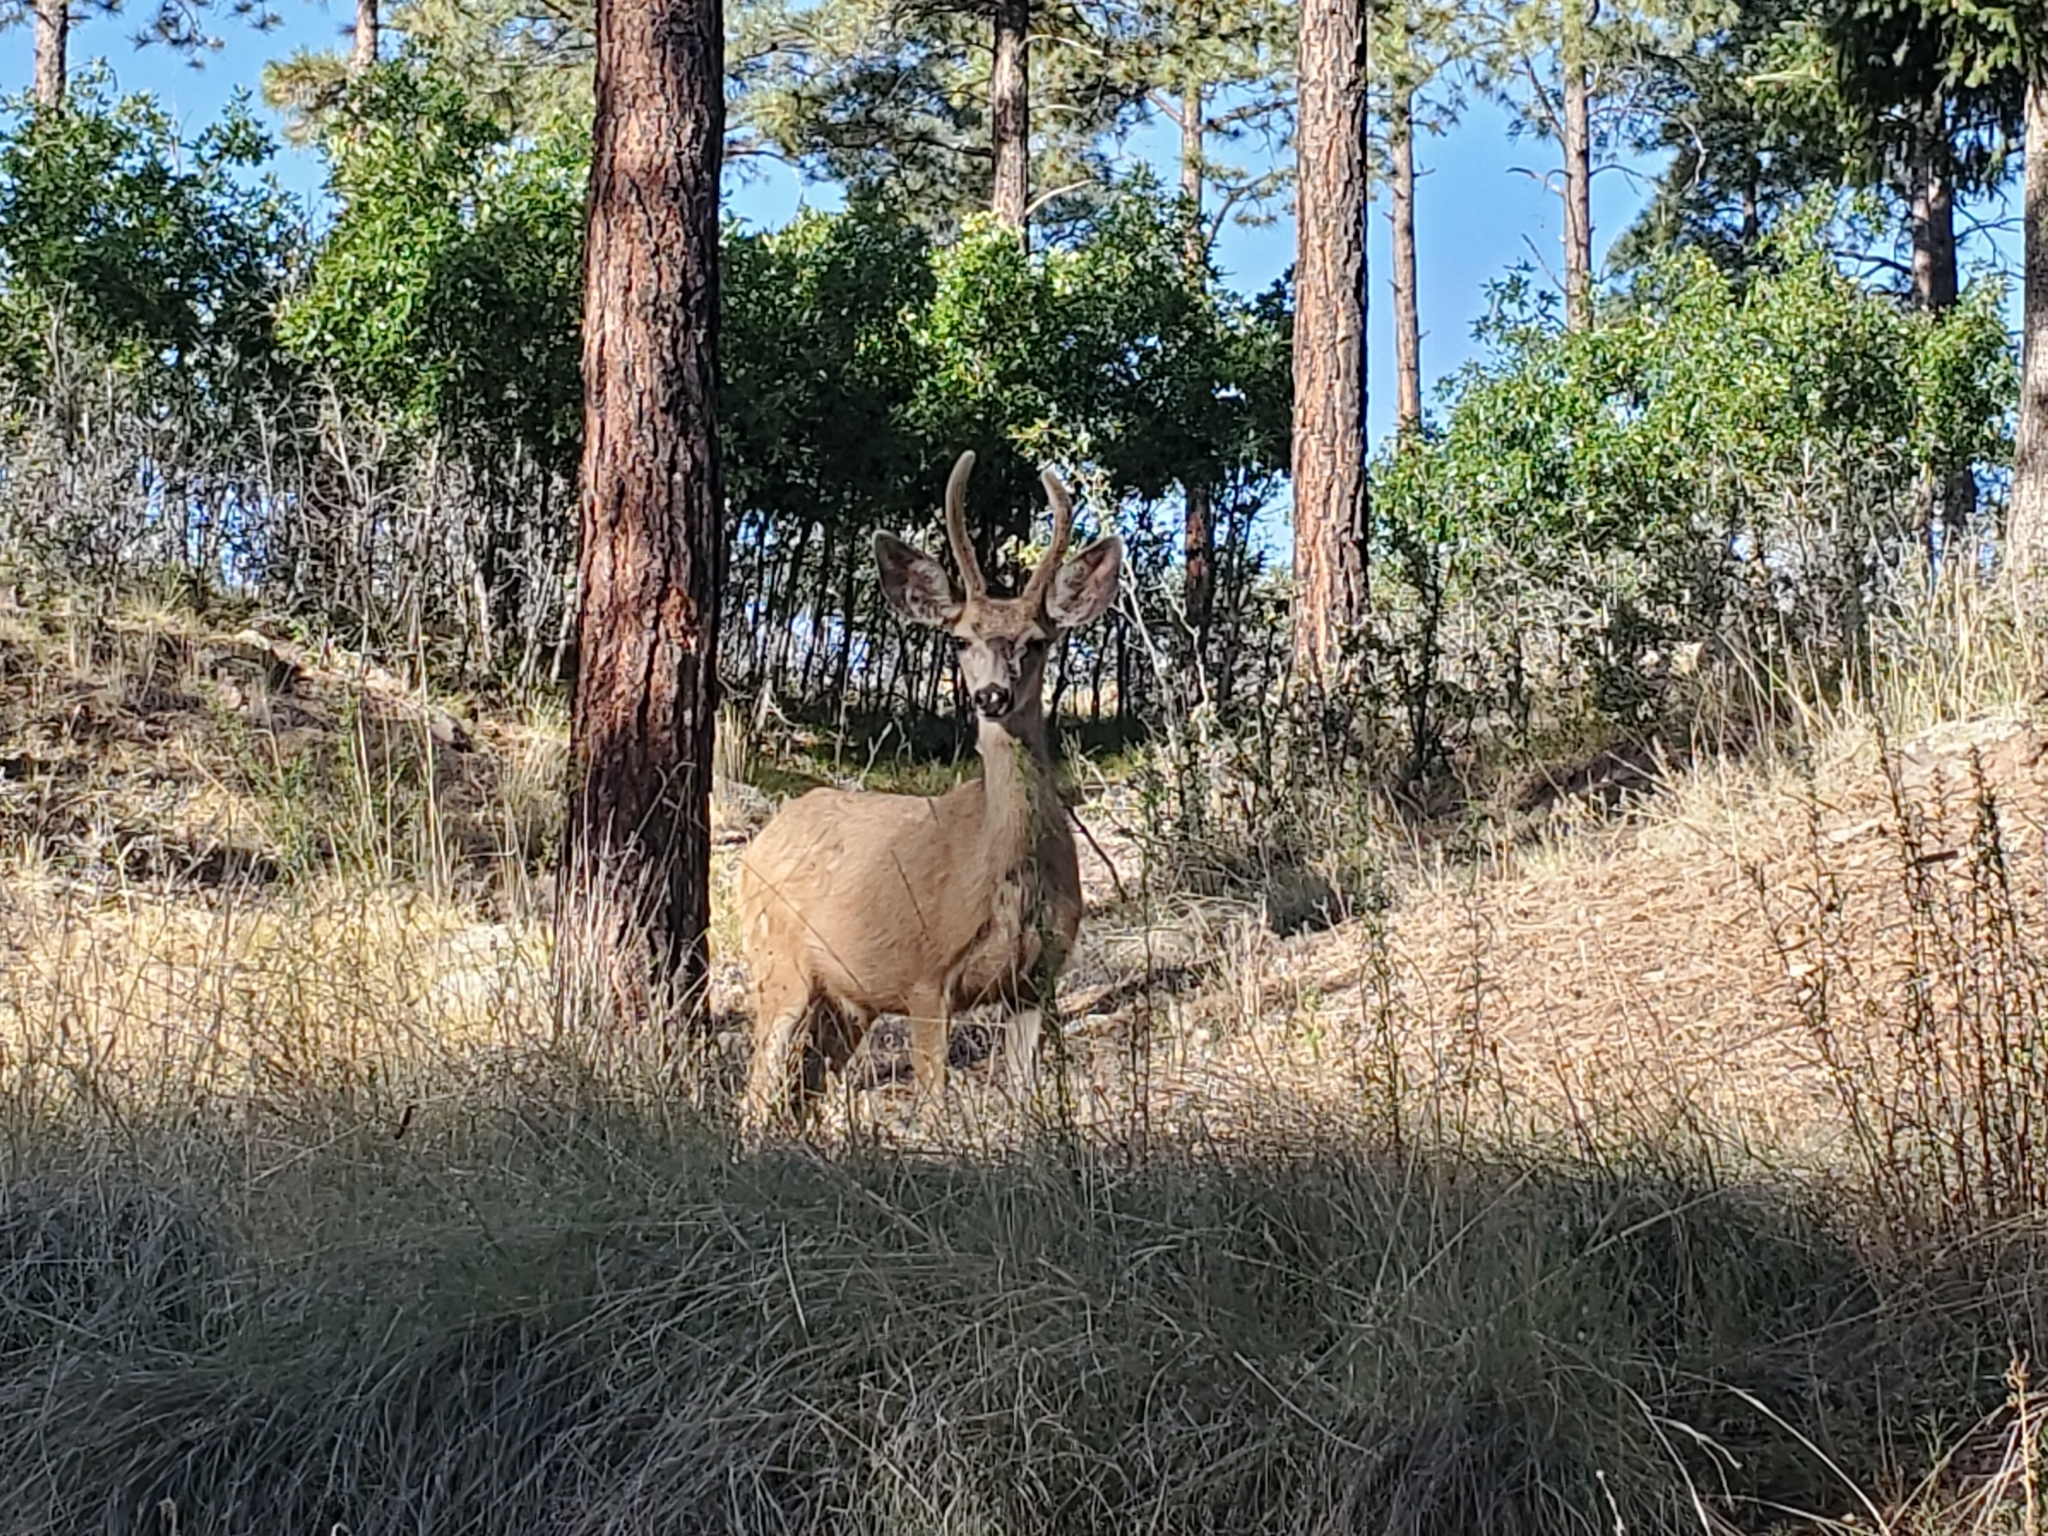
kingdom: Animalia
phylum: Chordata
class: Mammalia
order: Artiodactyla
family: Cervidae
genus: Odocoileus
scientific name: Odocoileus hemionus
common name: Mule deer
